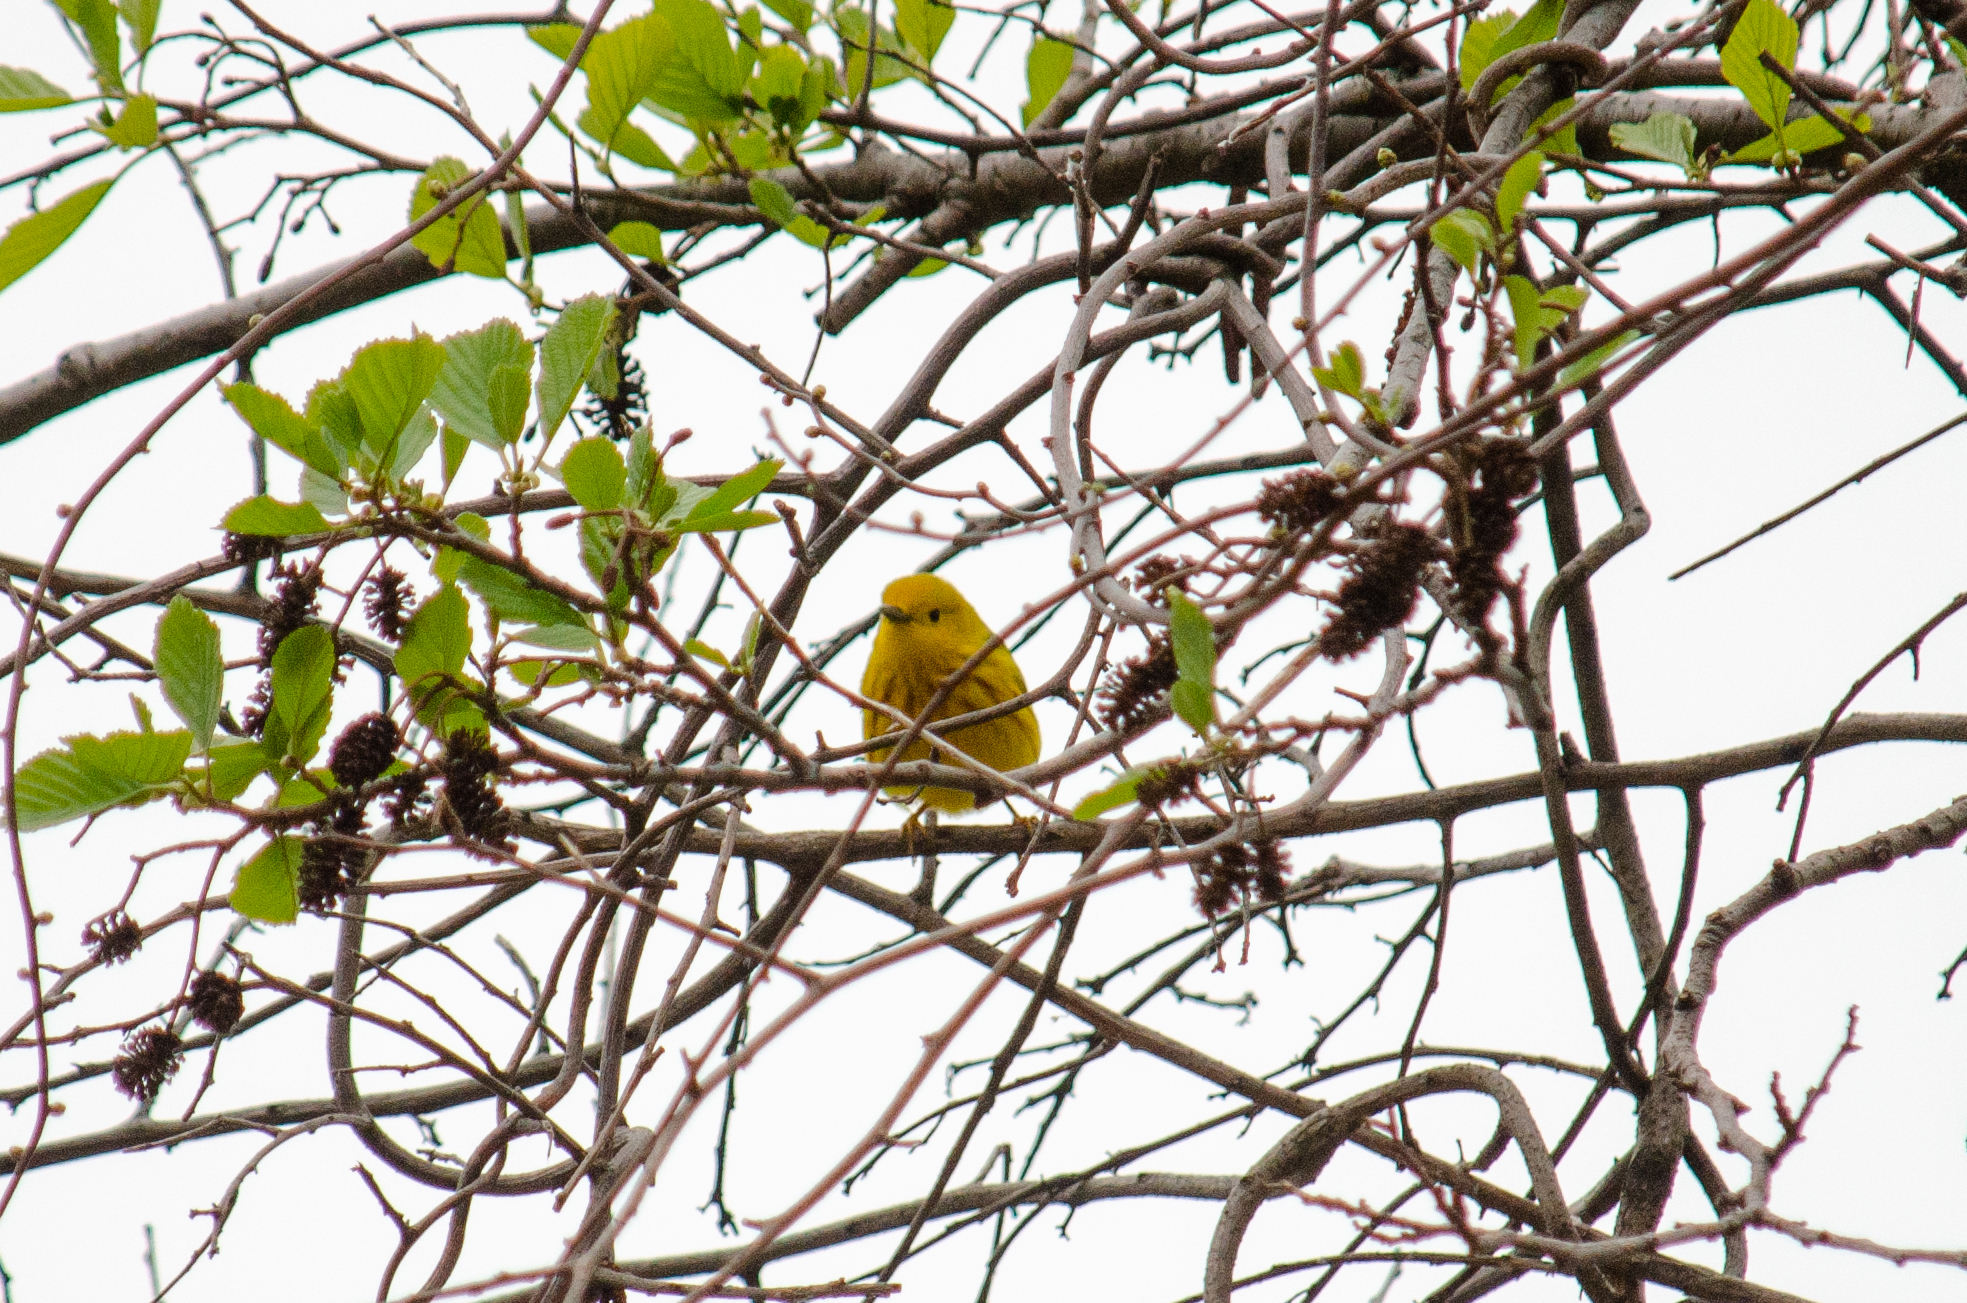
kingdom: Animalia
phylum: Chordata
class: Aves
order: Passeriformes
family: Parulidae
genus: Setophaga
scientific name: Setophaga petechia
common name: Yellow warbler
